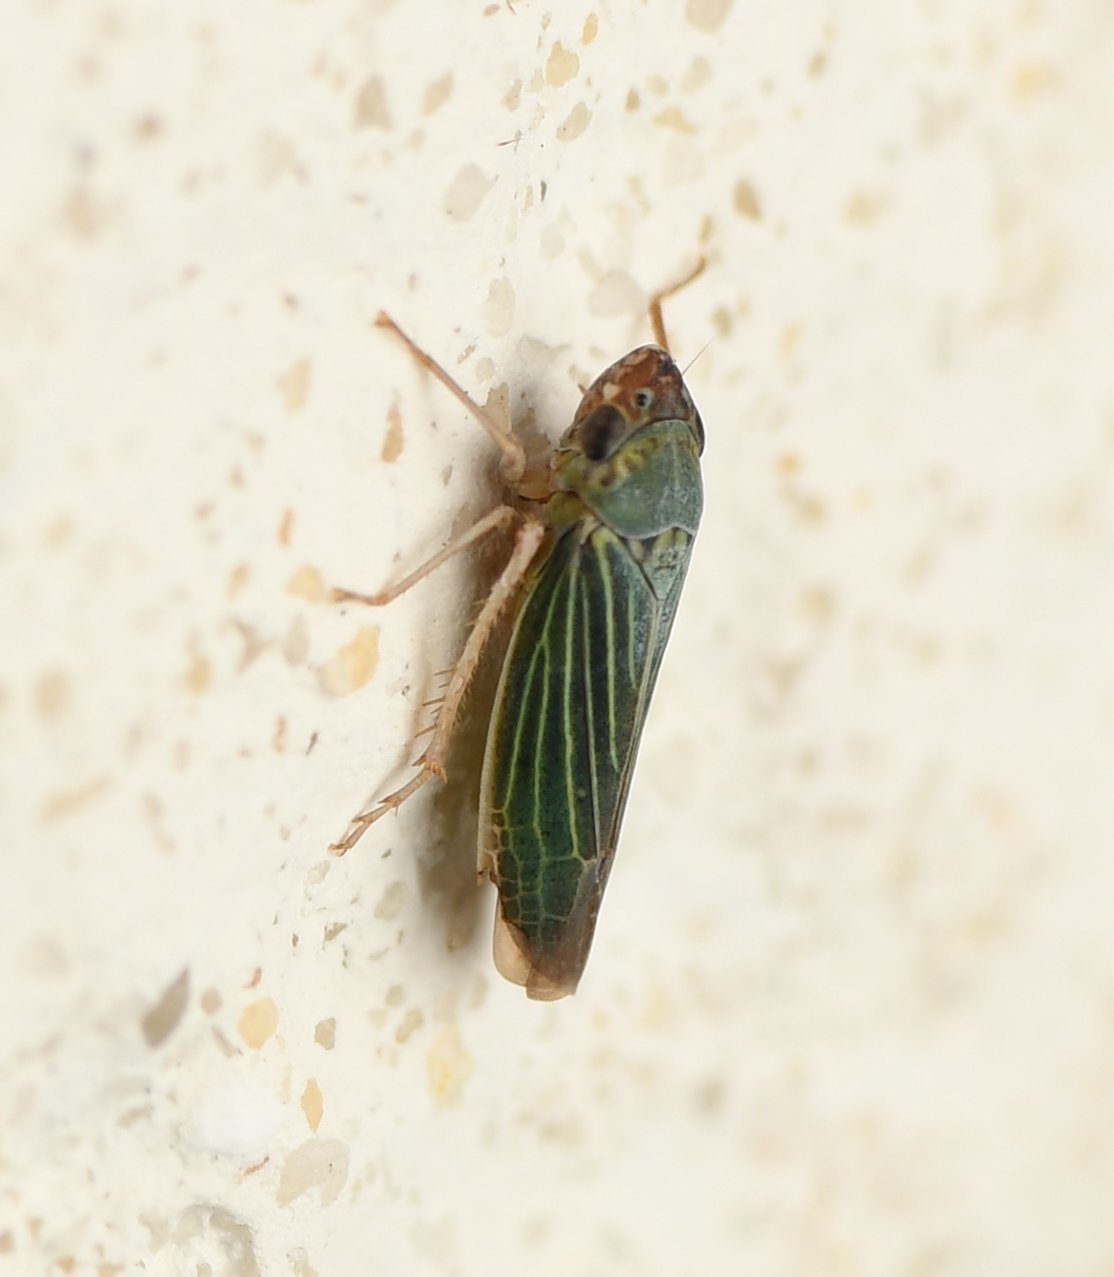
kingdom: Animalia
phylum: Arthropoda
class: Insecta
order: Hemiptera
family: Cicadellidae
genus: Xyphon
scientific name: Xyphon reticulatum
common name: Planthopper
